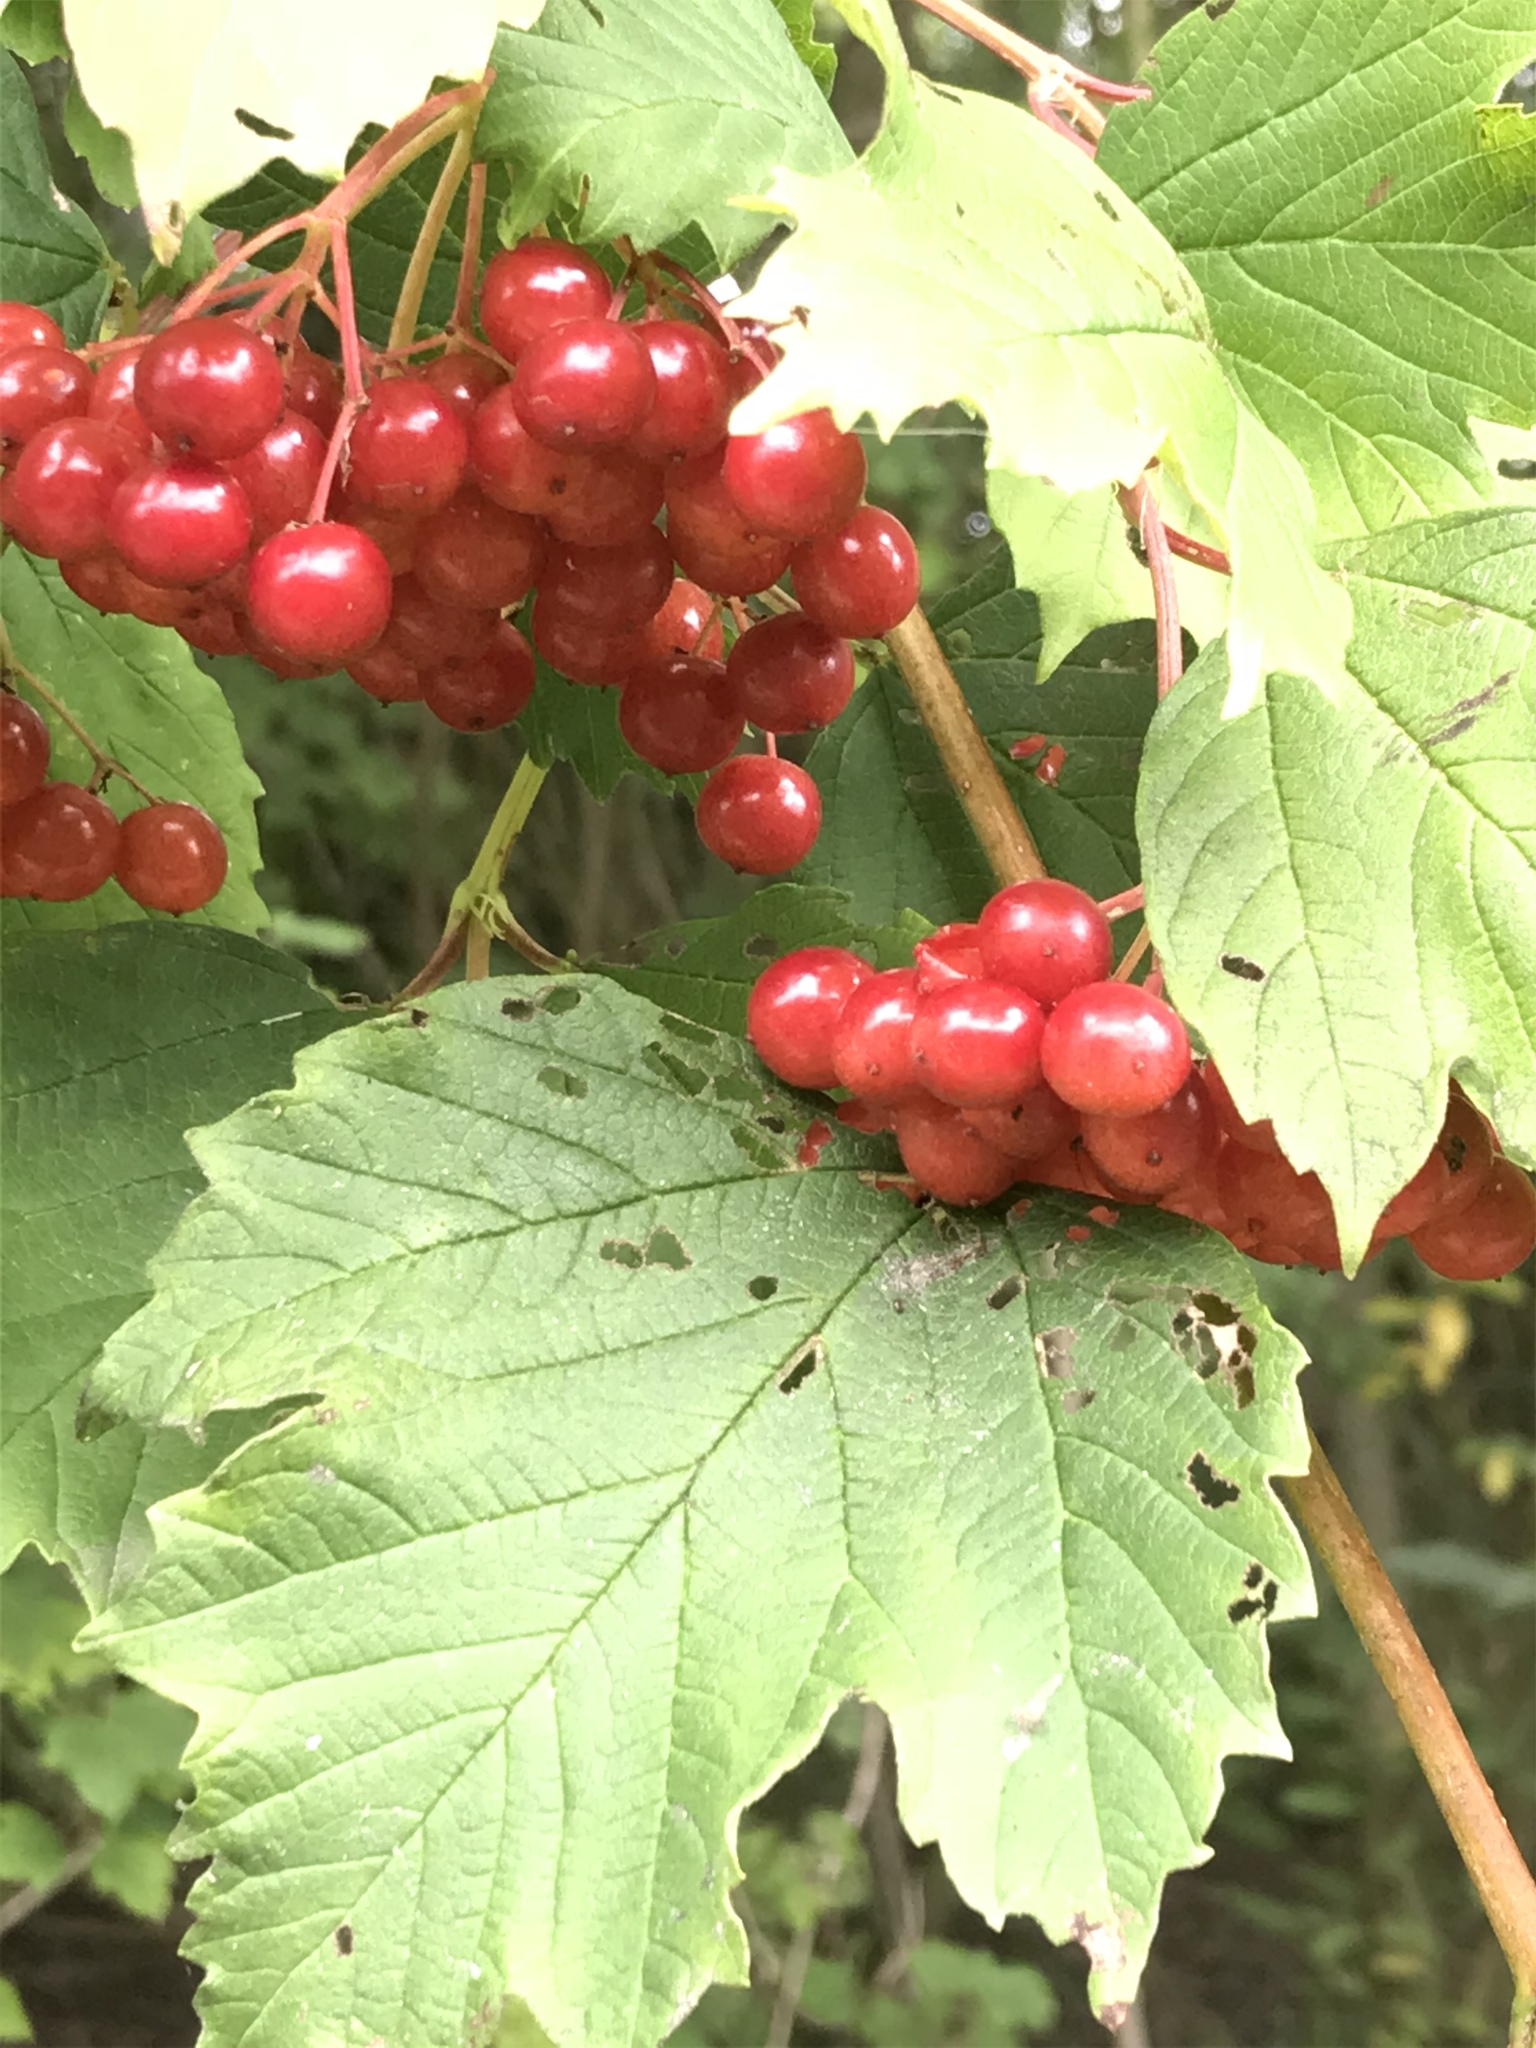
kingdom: Plantae
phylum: Tracheophyta
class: Magnoliopsida
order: Dipsacales
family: Viburnaceae
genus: Viburnum
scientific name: Viburnum opulus
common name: Guelder-rose
